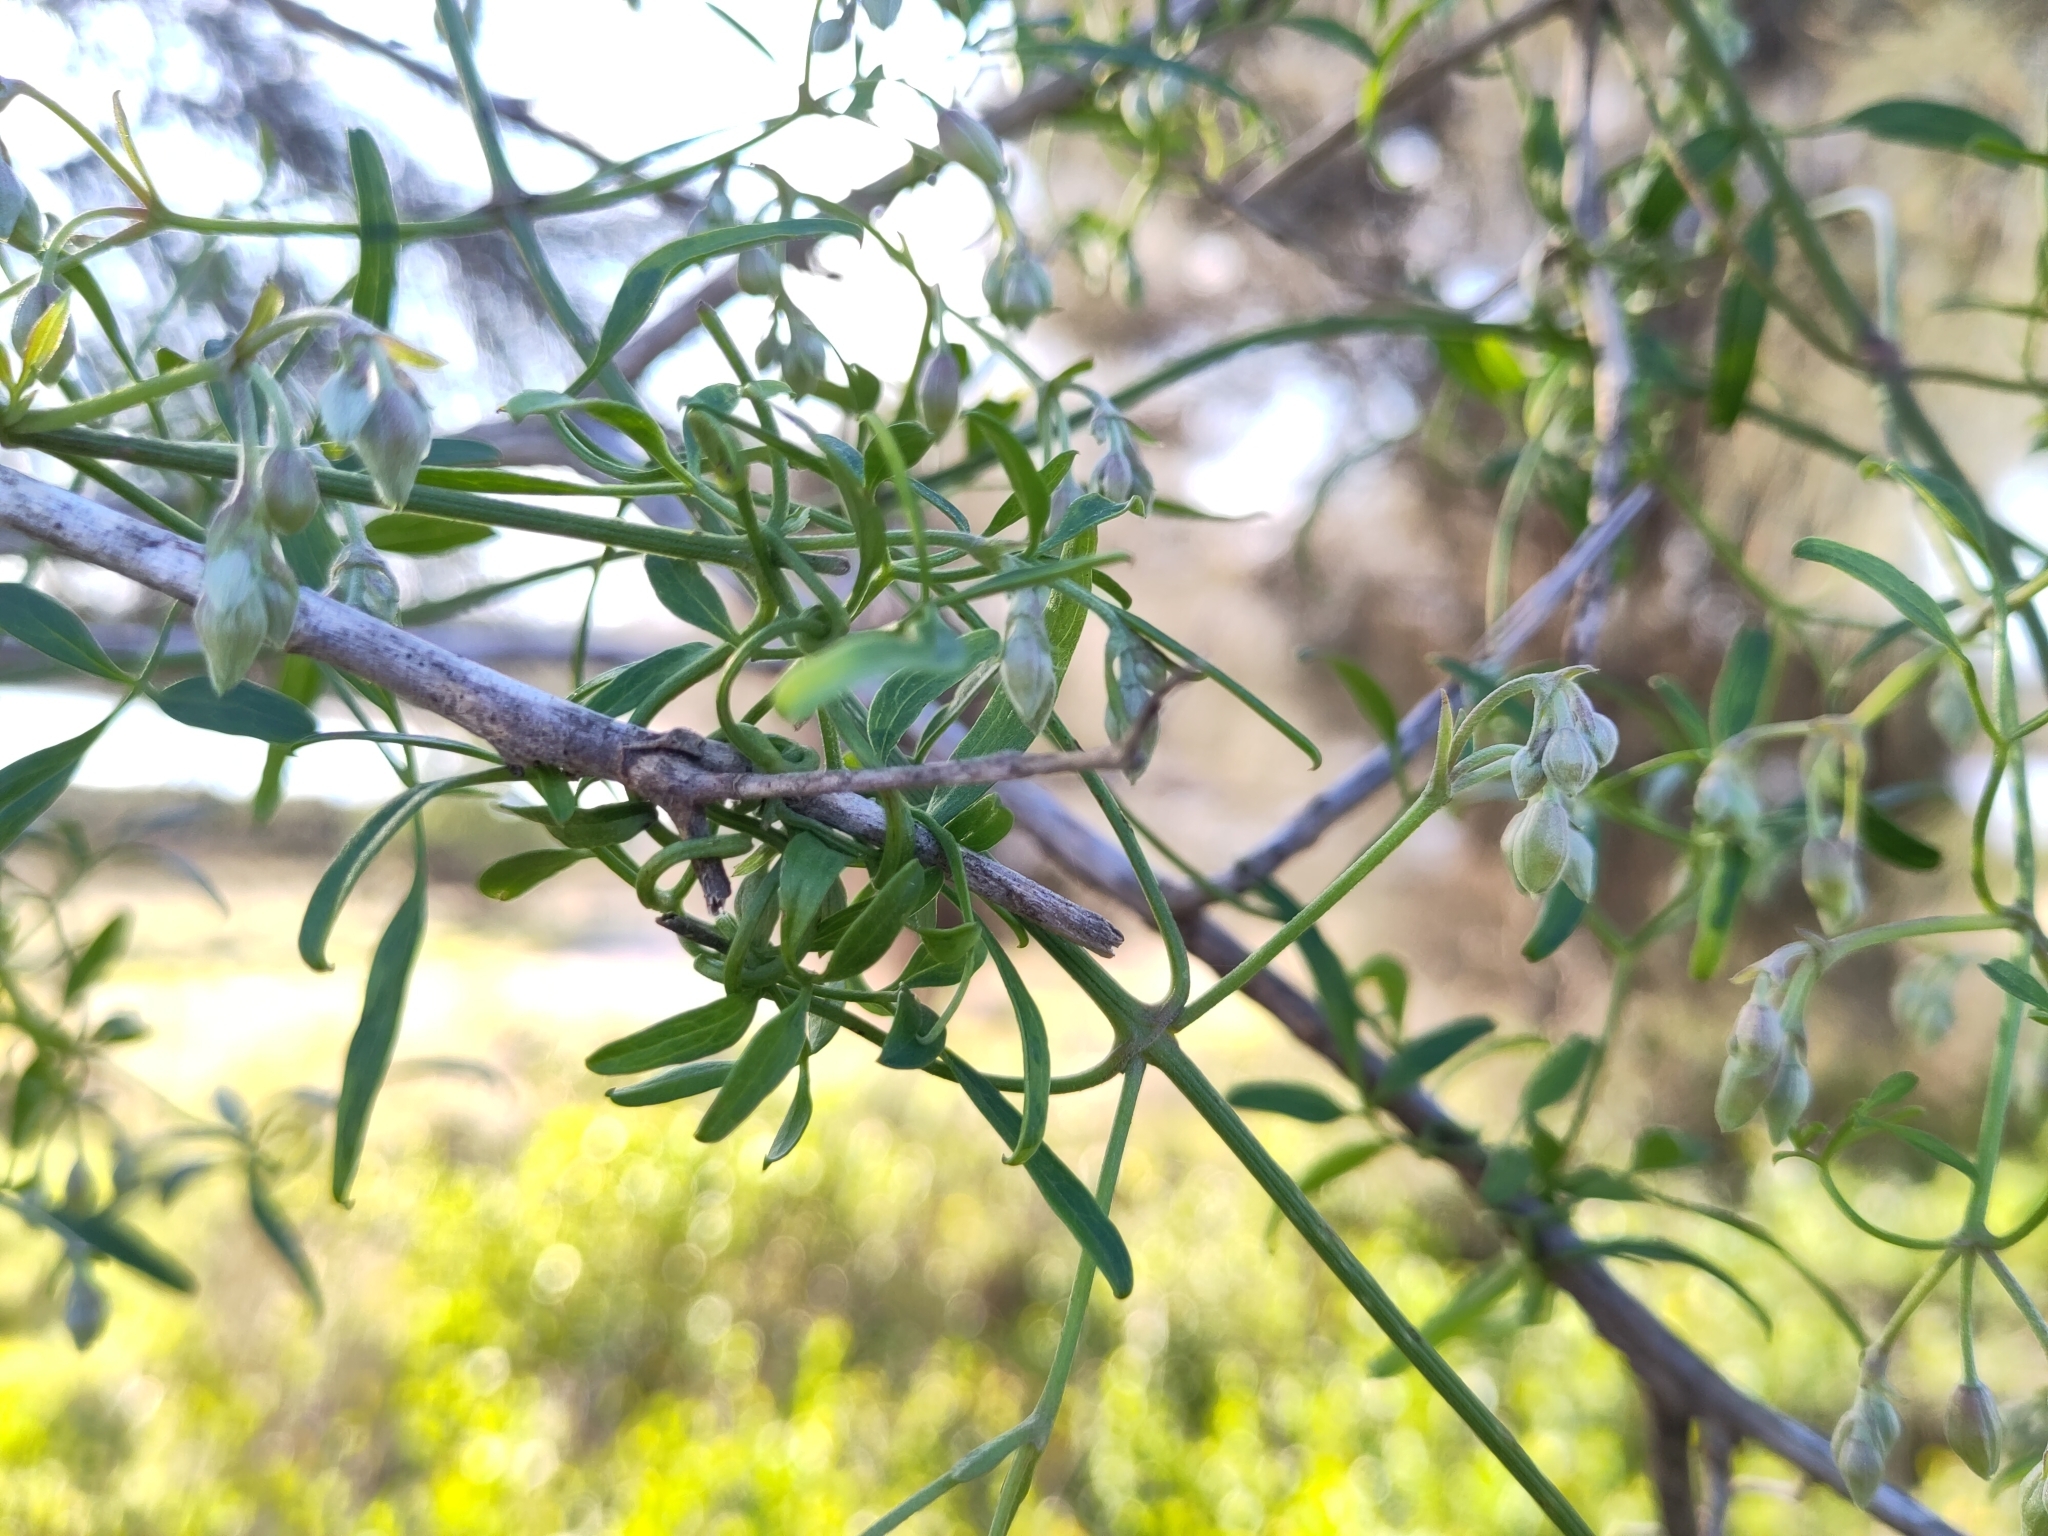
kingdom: Plantae
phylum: Tracheophyta
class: Magnoliopsida
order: Ranunculales
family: Ranunculaceae
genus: Clematis
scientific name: Clematis microphylla
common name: Headachevine
